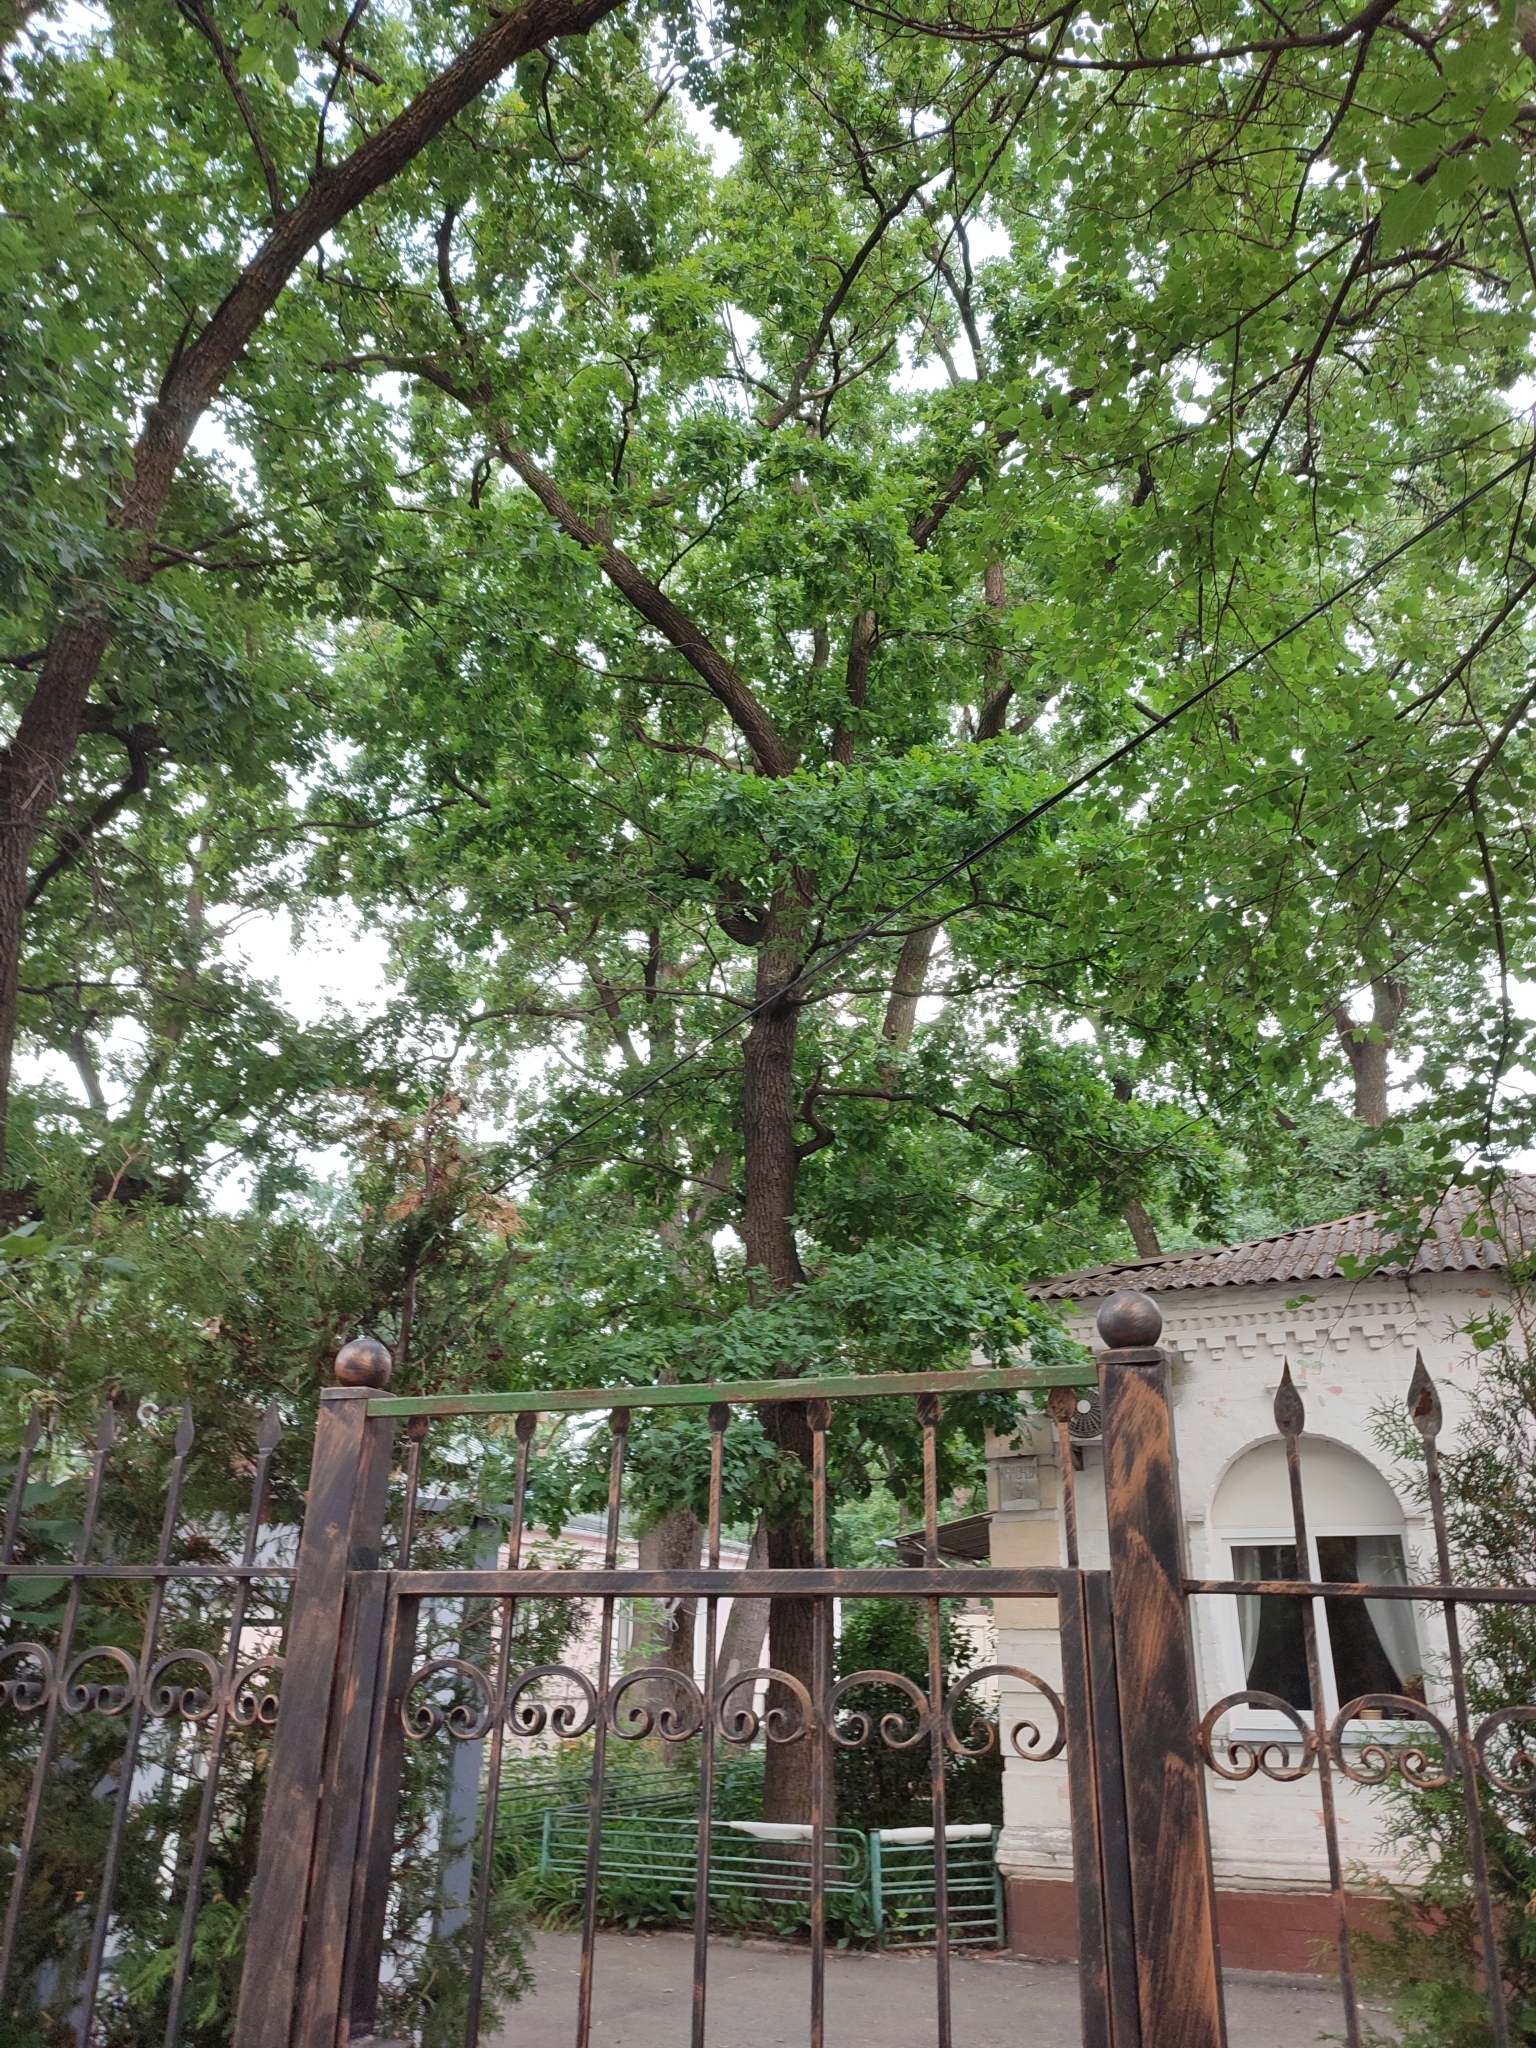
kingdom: Plantae
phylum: Tracheophyta
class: Magnoliopsida
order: Fagales
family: Fagaceae
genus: Quercus
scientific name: Quercus robur
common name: Pedunculate oak
